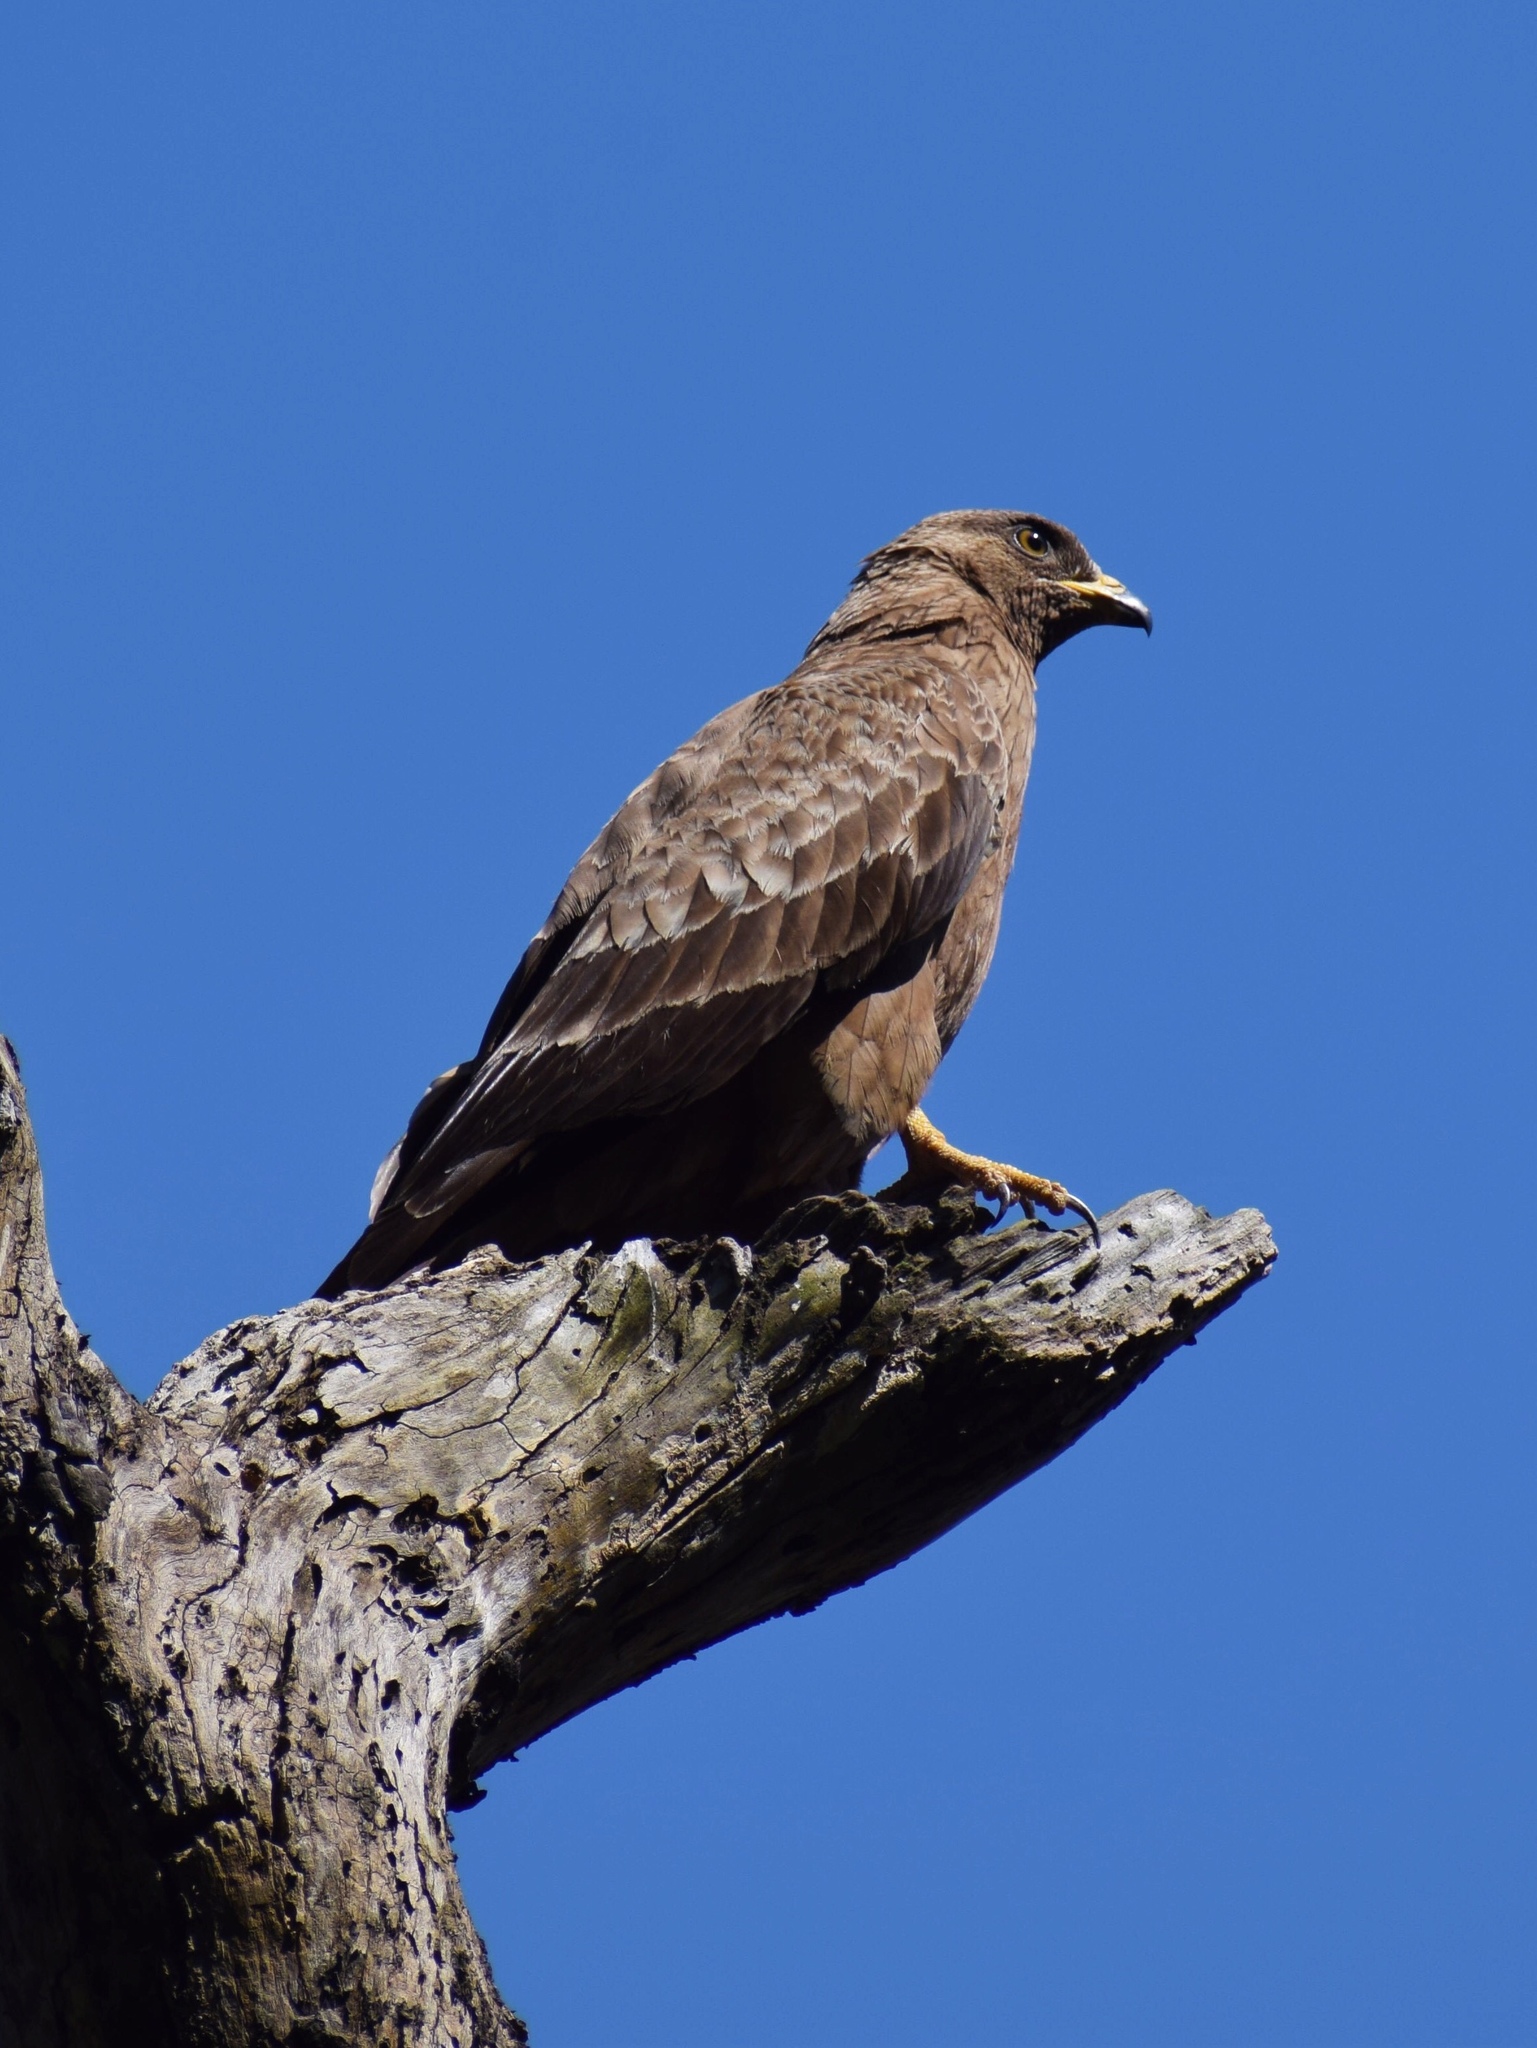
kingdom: Animalia
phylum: Chordata
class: Aves
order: Accipitriformes
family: Accipitridae
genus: Pernis
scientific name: Pernis apivorus
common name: European honey buzzard
